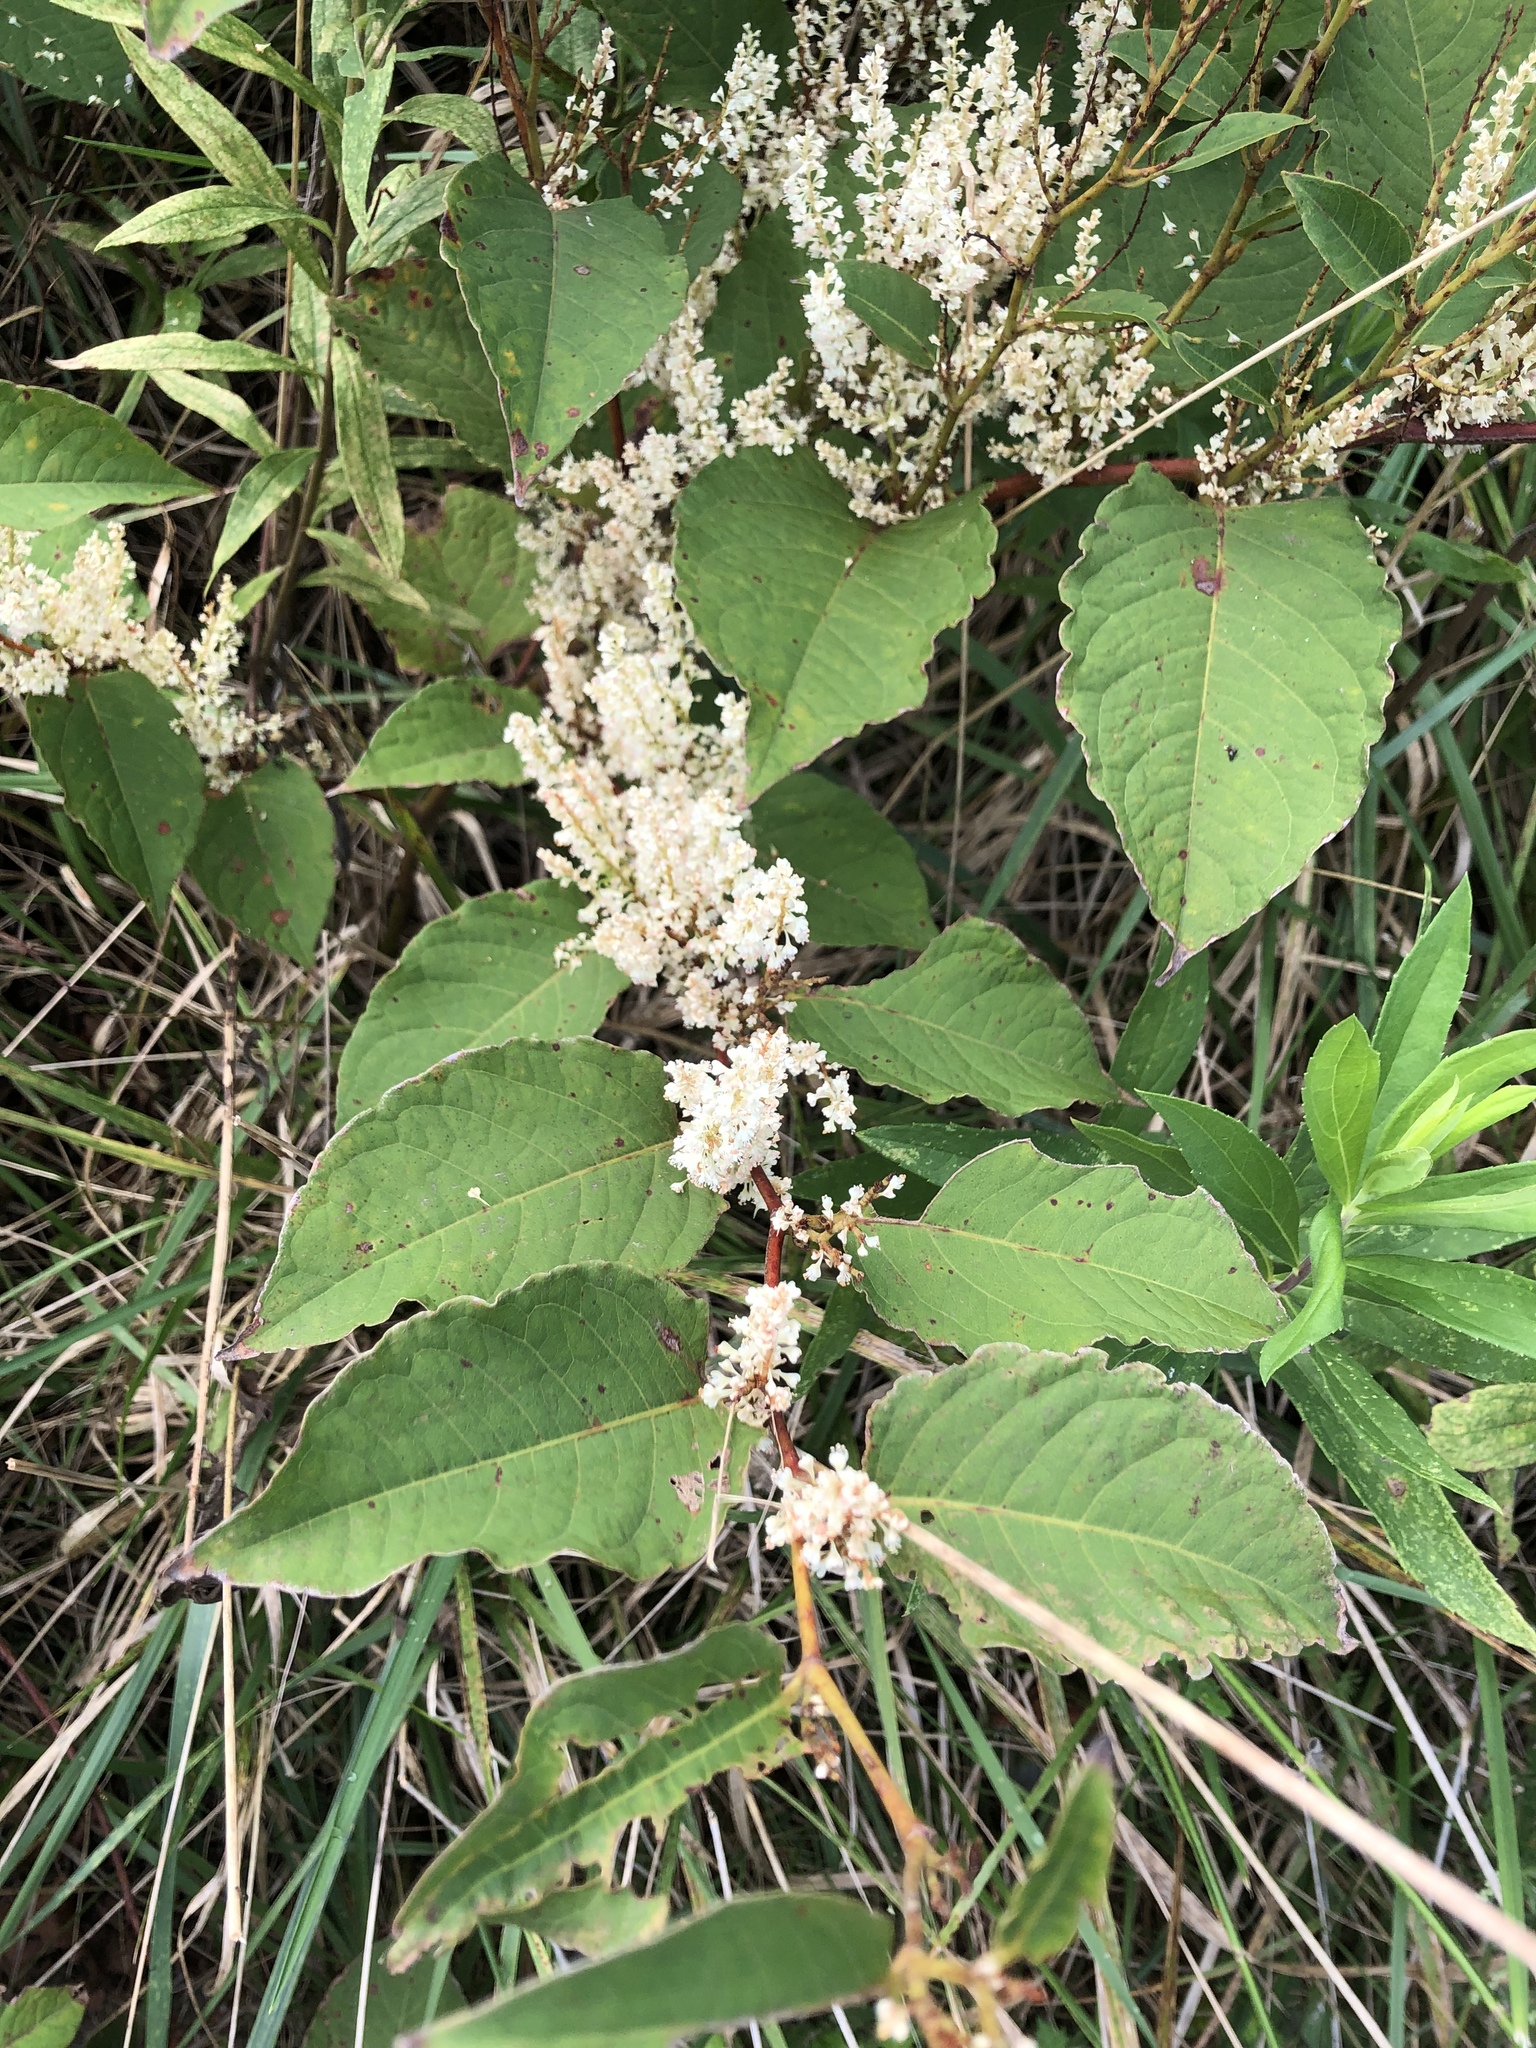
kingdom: Plantae
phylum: Tracheophyta
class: Magnoliopsida
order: Caryophyllales
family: Polygonaceae
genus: Reynoutria
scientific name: Reynoutria japonica
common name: Japanese knotweed
